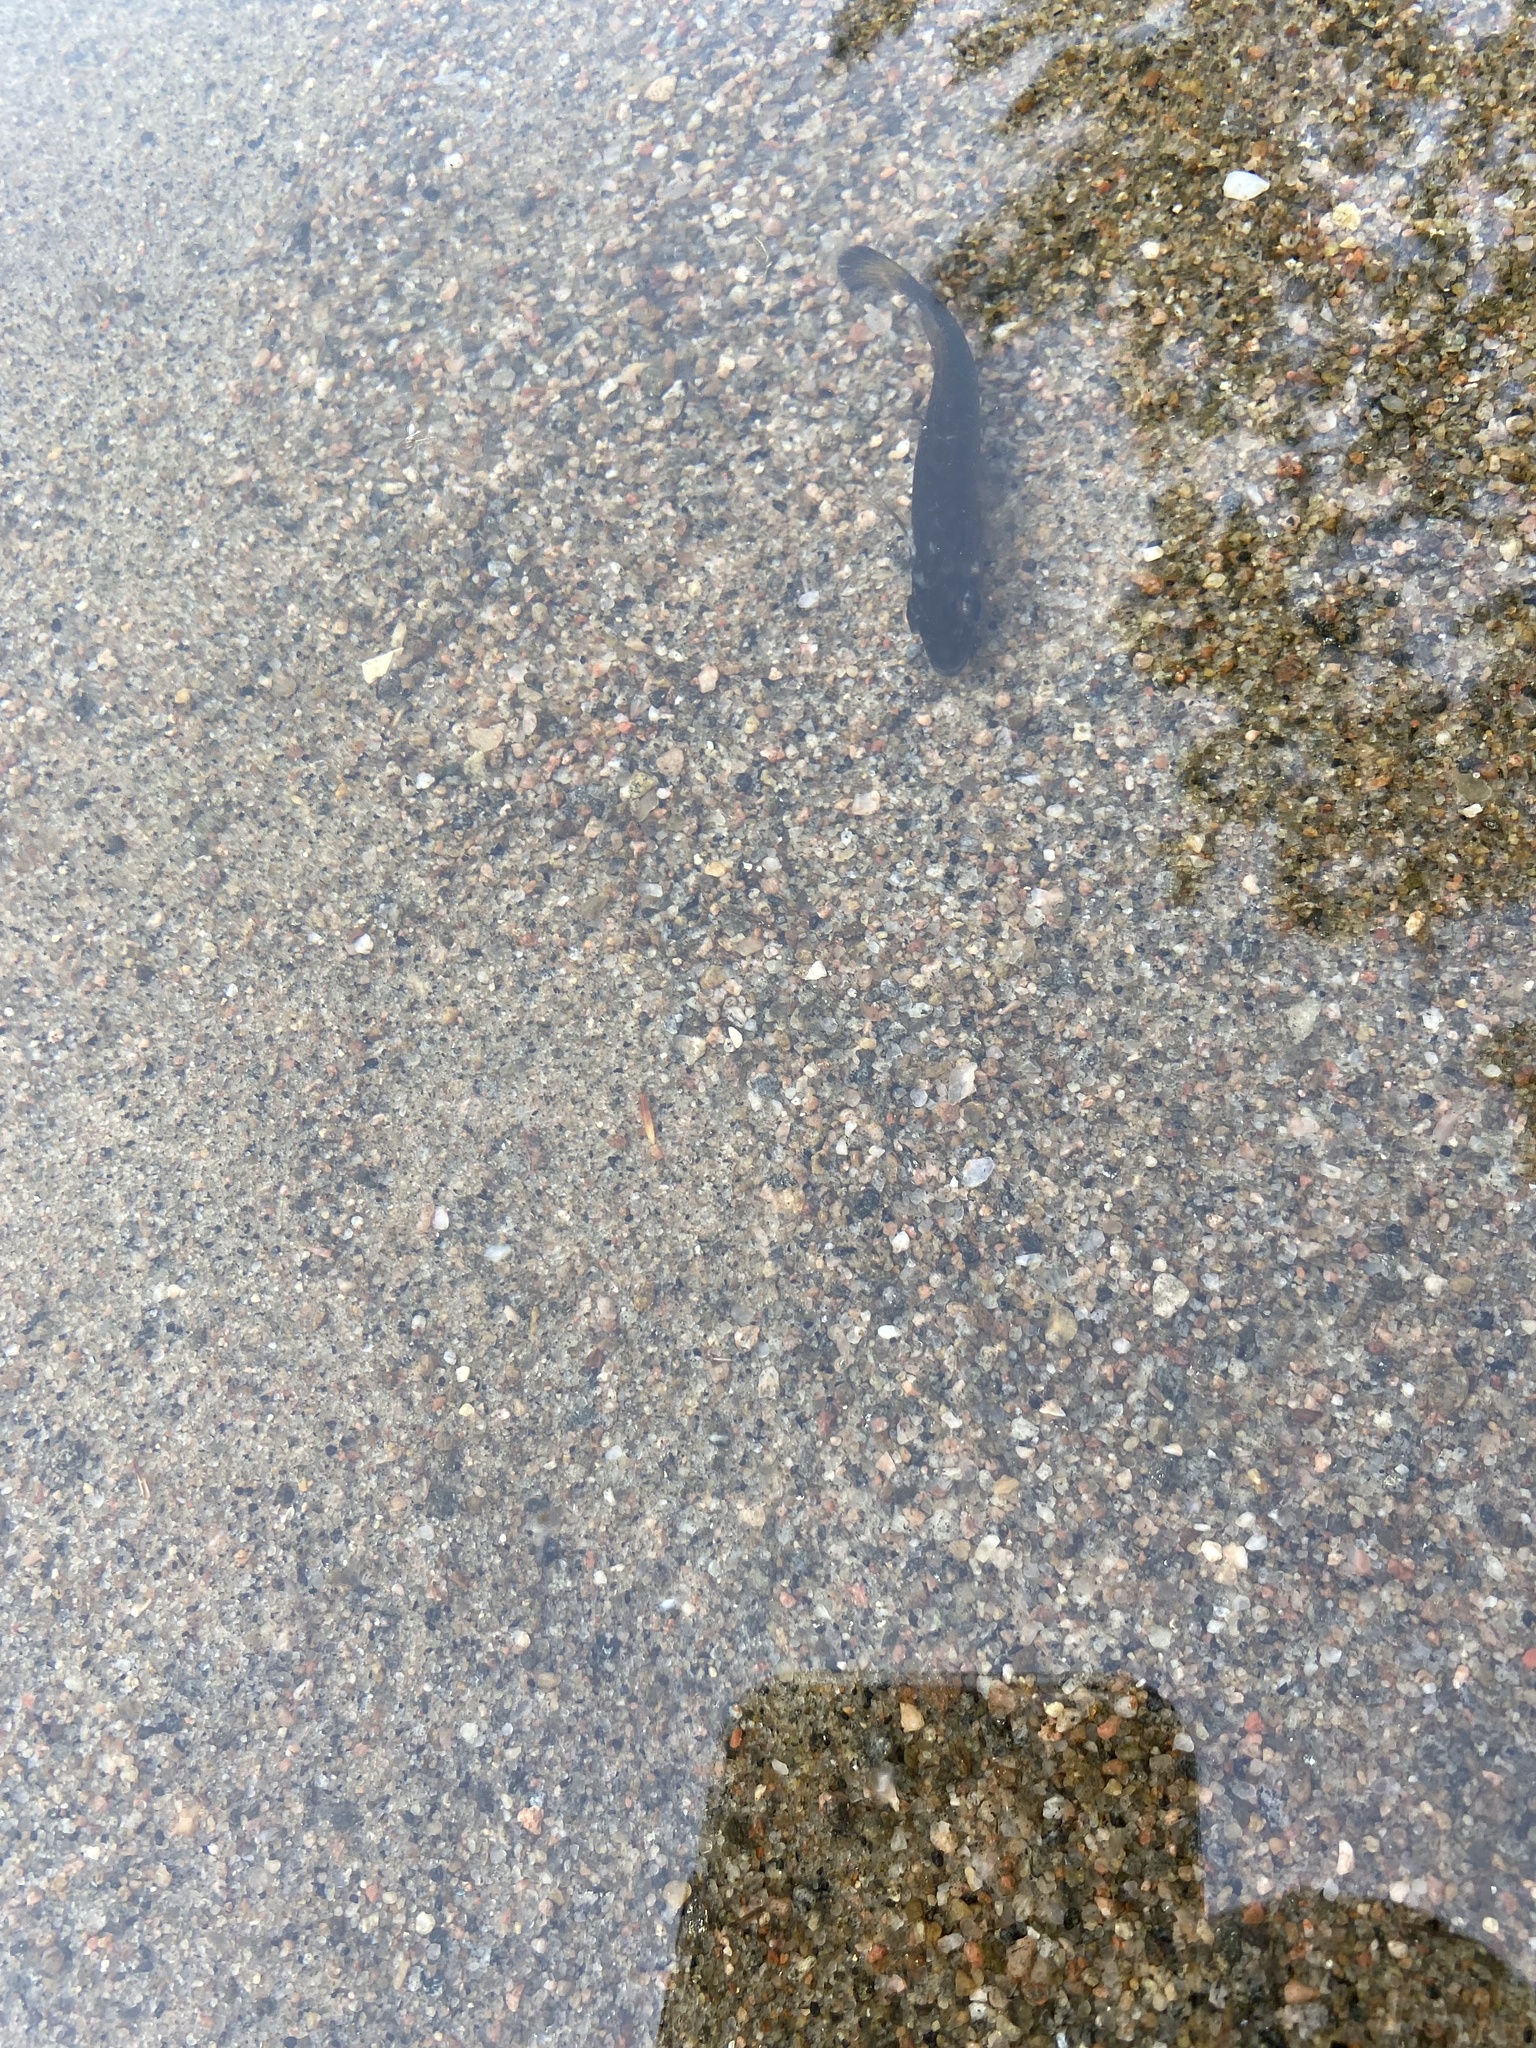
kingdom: Animalia
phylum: Chordata
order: Perciformes
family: Centrarchidae
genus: Micropterus
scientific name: Micropterus dolomieu
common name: Smallmouth bass
